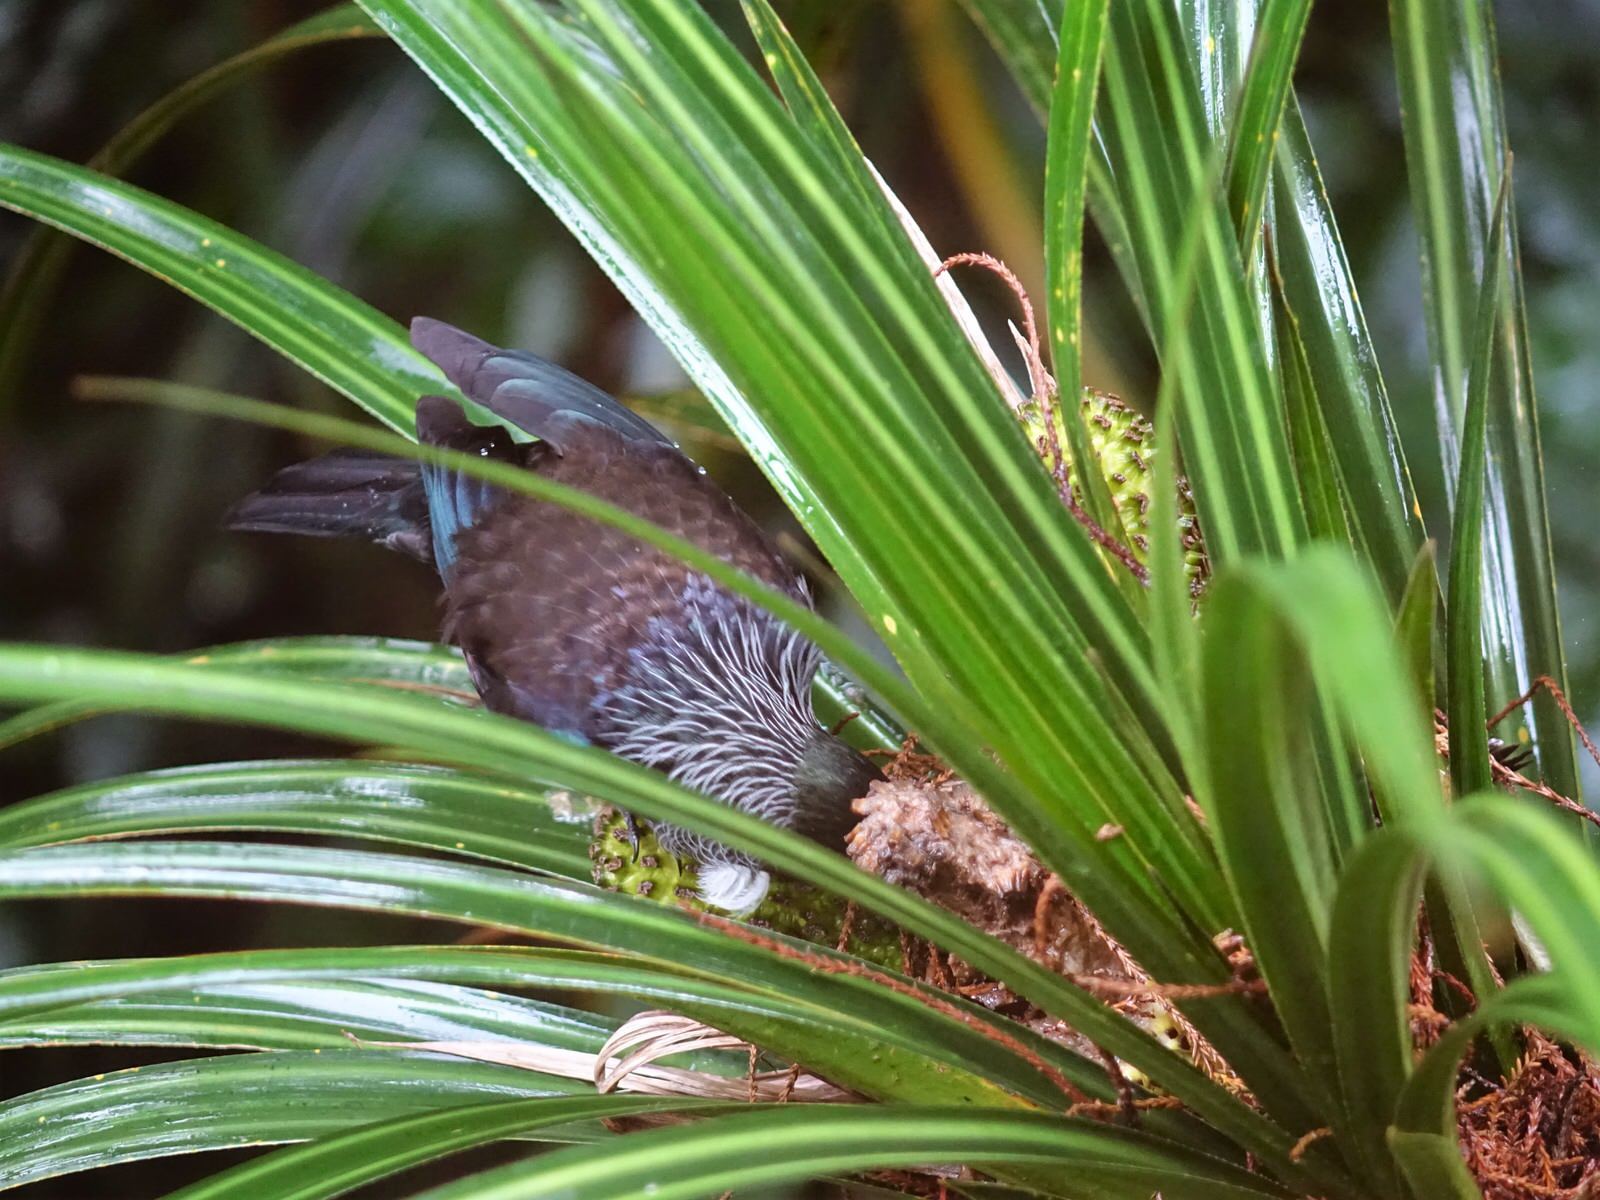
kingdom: Animalia
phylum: Chordata
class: Aves
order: Passeriformes
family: Meliphagidae
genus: Prosthemadera
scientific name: Prosthemadera novaeseelandiae
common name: Tui
